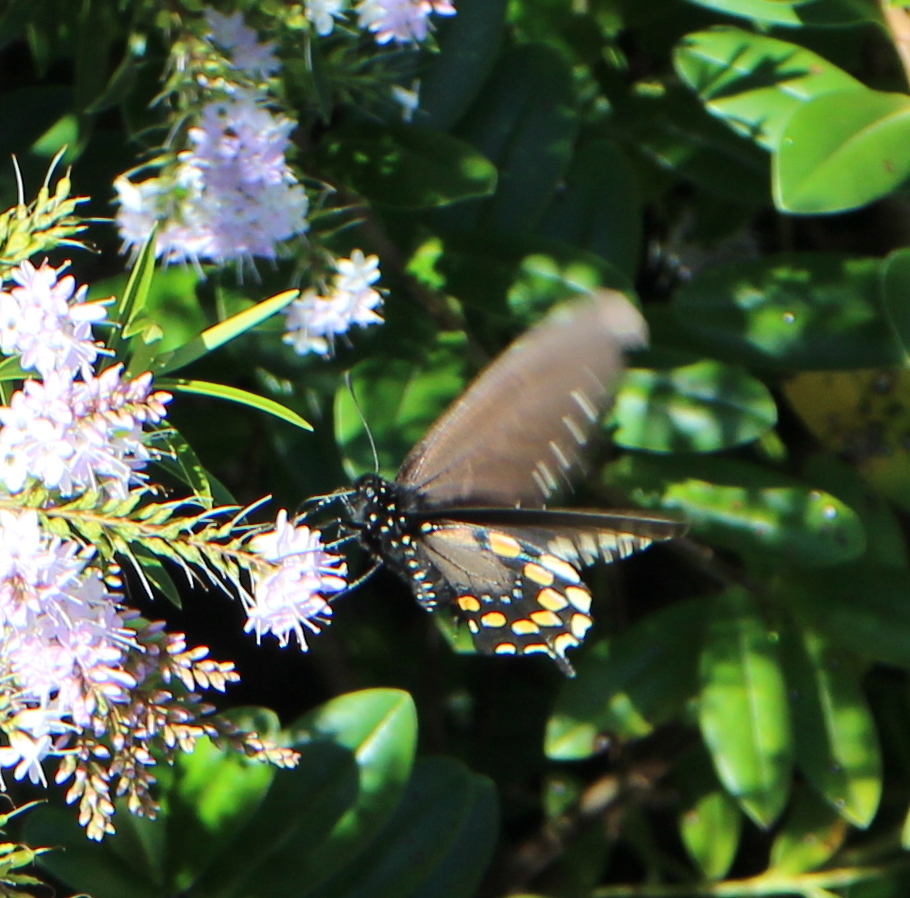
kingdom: Animalia
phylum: Arthropoda
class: Insecta
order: Lepidoptera
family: Papilionidae
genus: Battus
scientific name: Battus philenor
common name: Pipevine swallowtail
